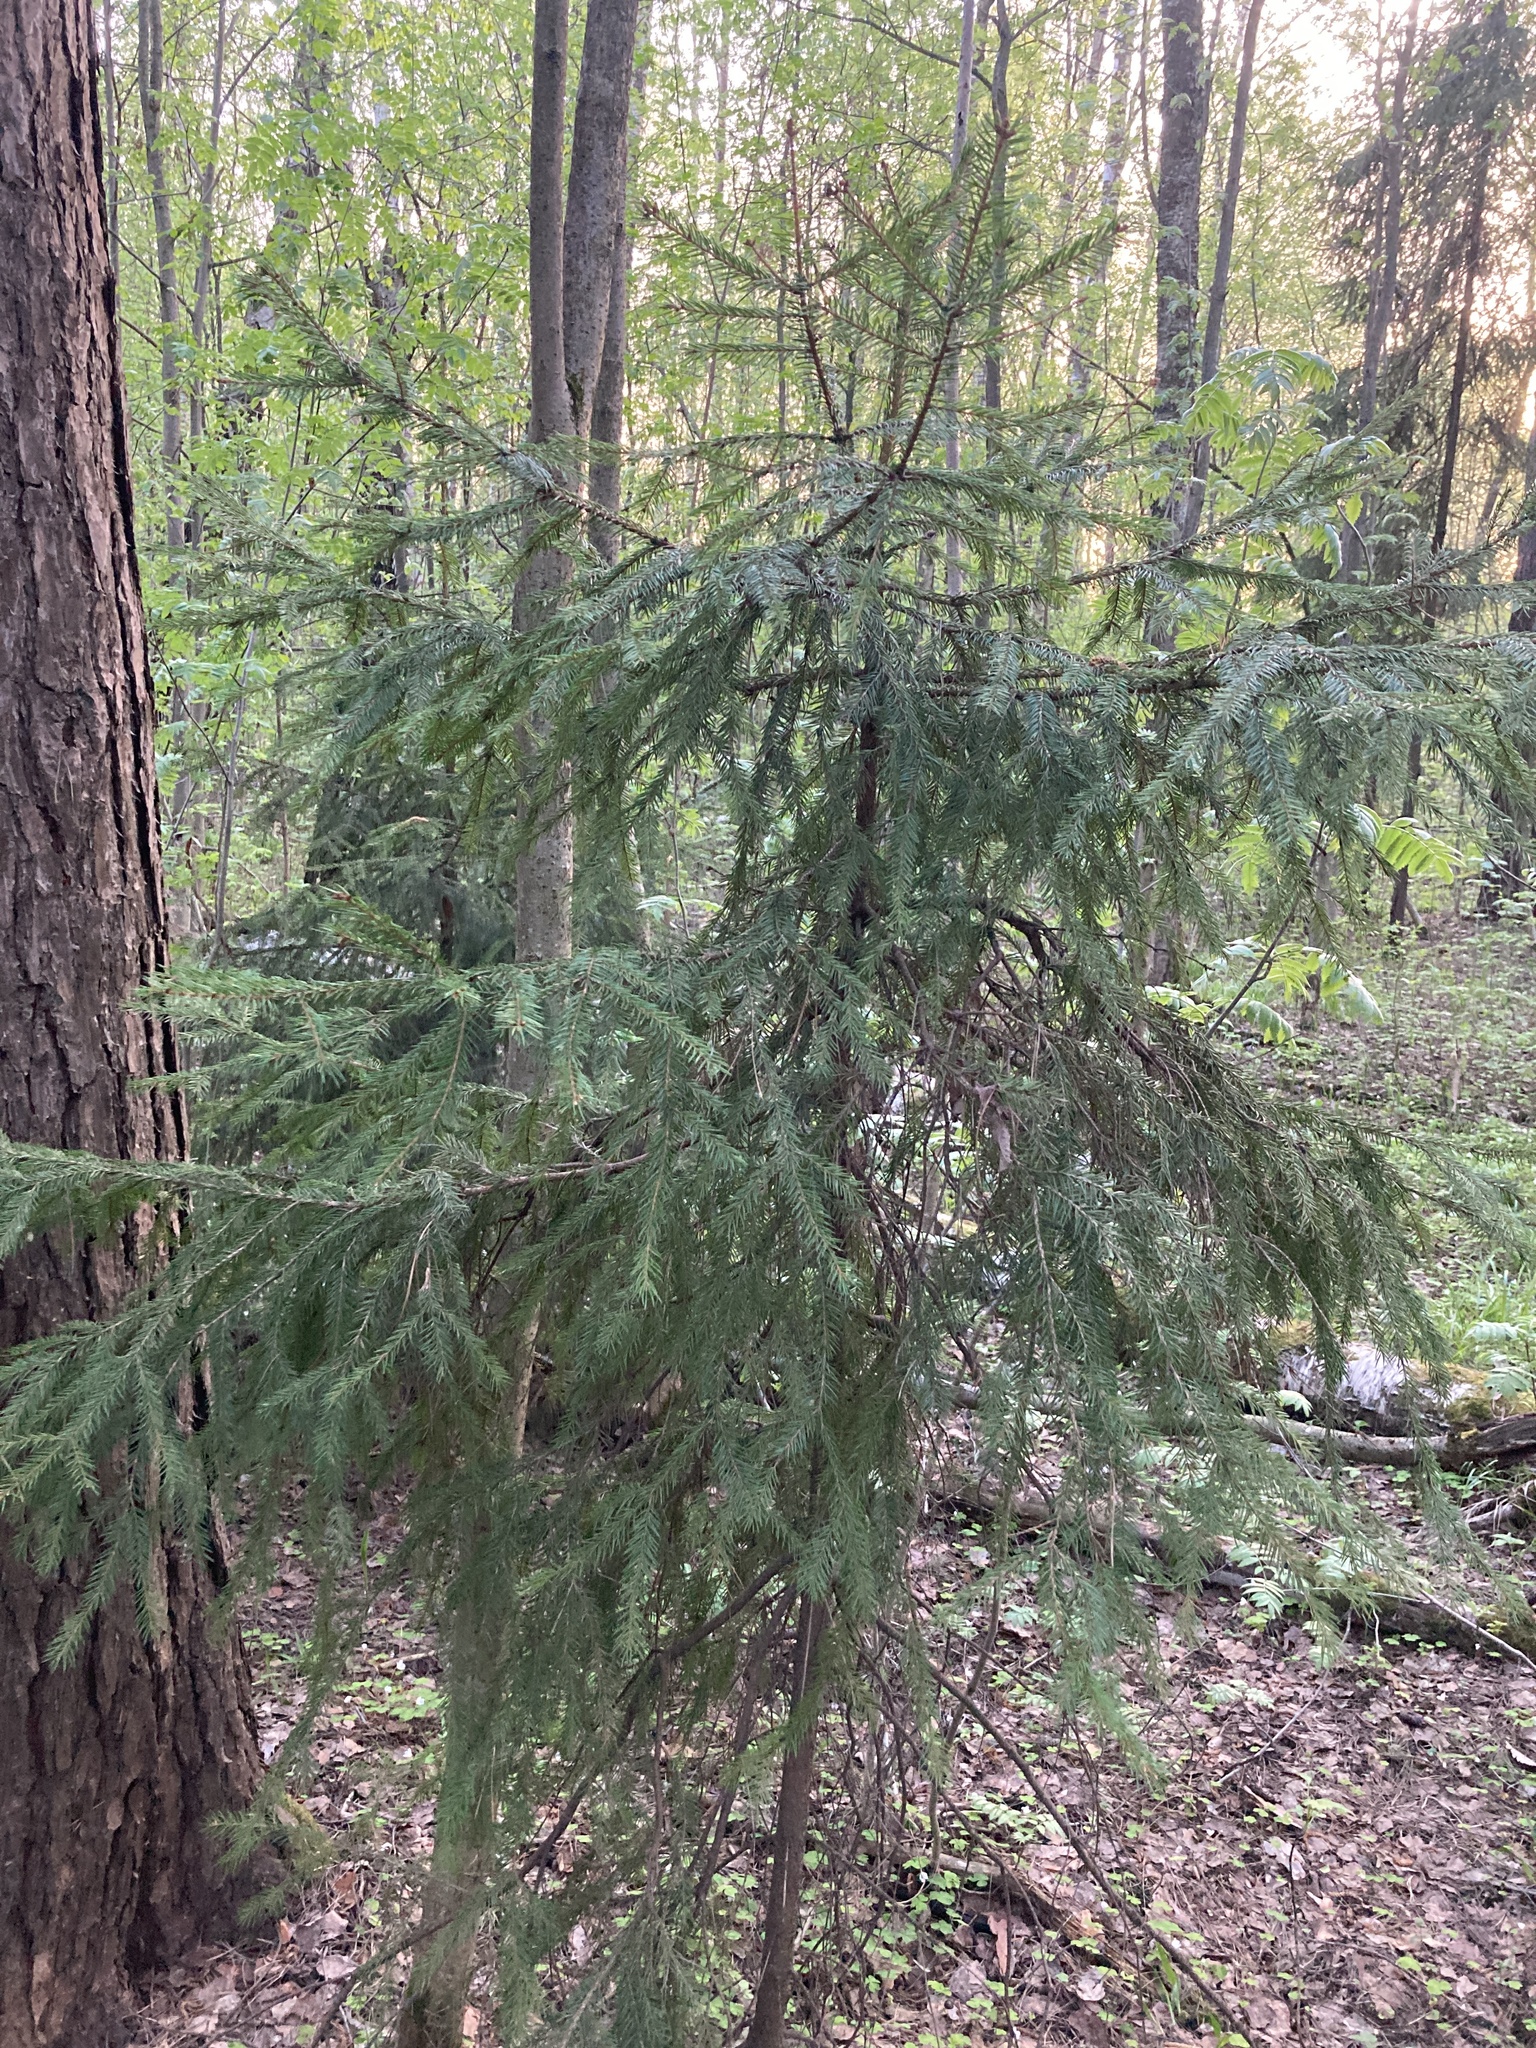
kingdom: Plantae
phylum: Tracheophyta
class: Pinopsida
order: Pinales
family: Pinaceae
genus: Picea
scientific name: Picea abies
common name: Norway spruce
